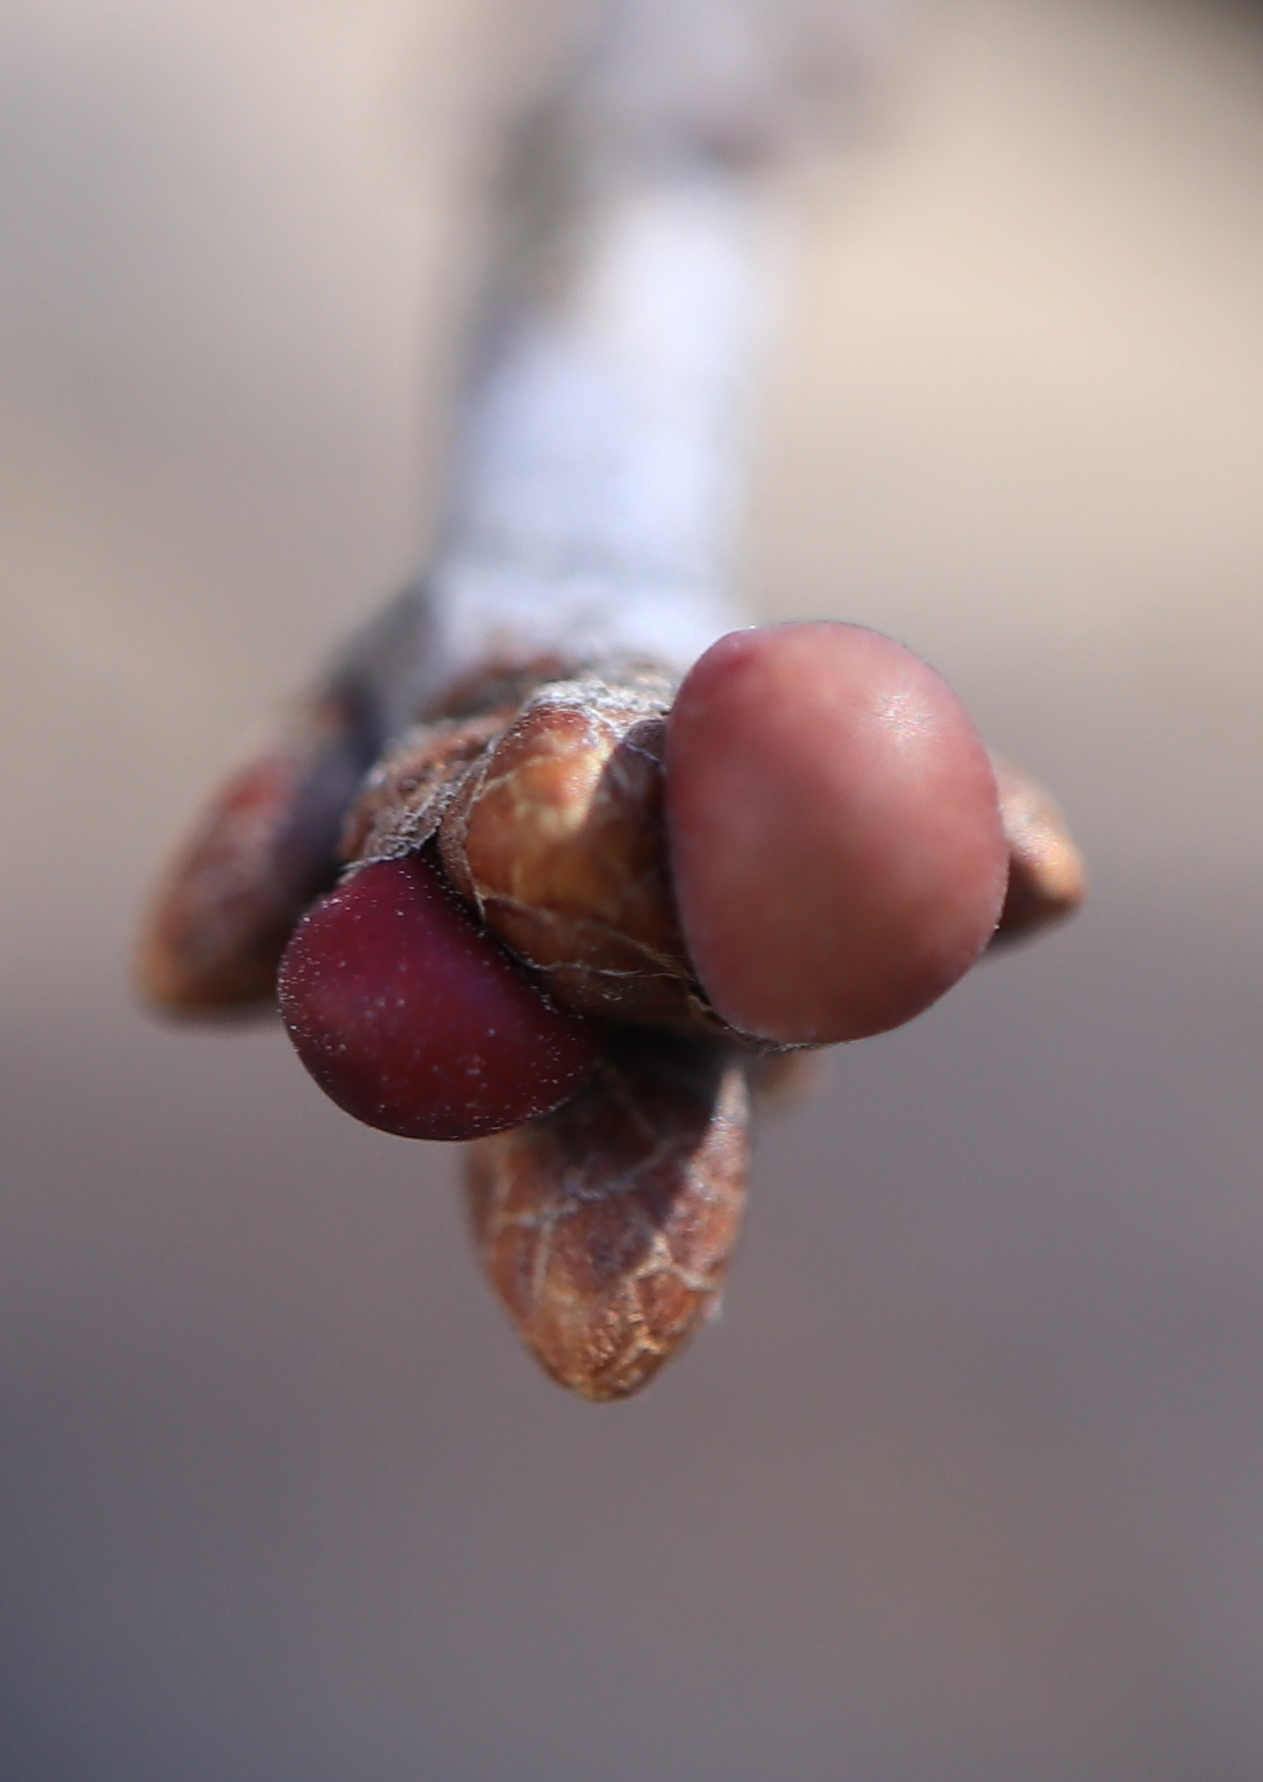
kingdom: Animalia
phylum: Arthropoda
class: Insecta
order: Hymenoptera
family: Cynipidae
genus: Neuroterus
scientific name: Neuroterus
